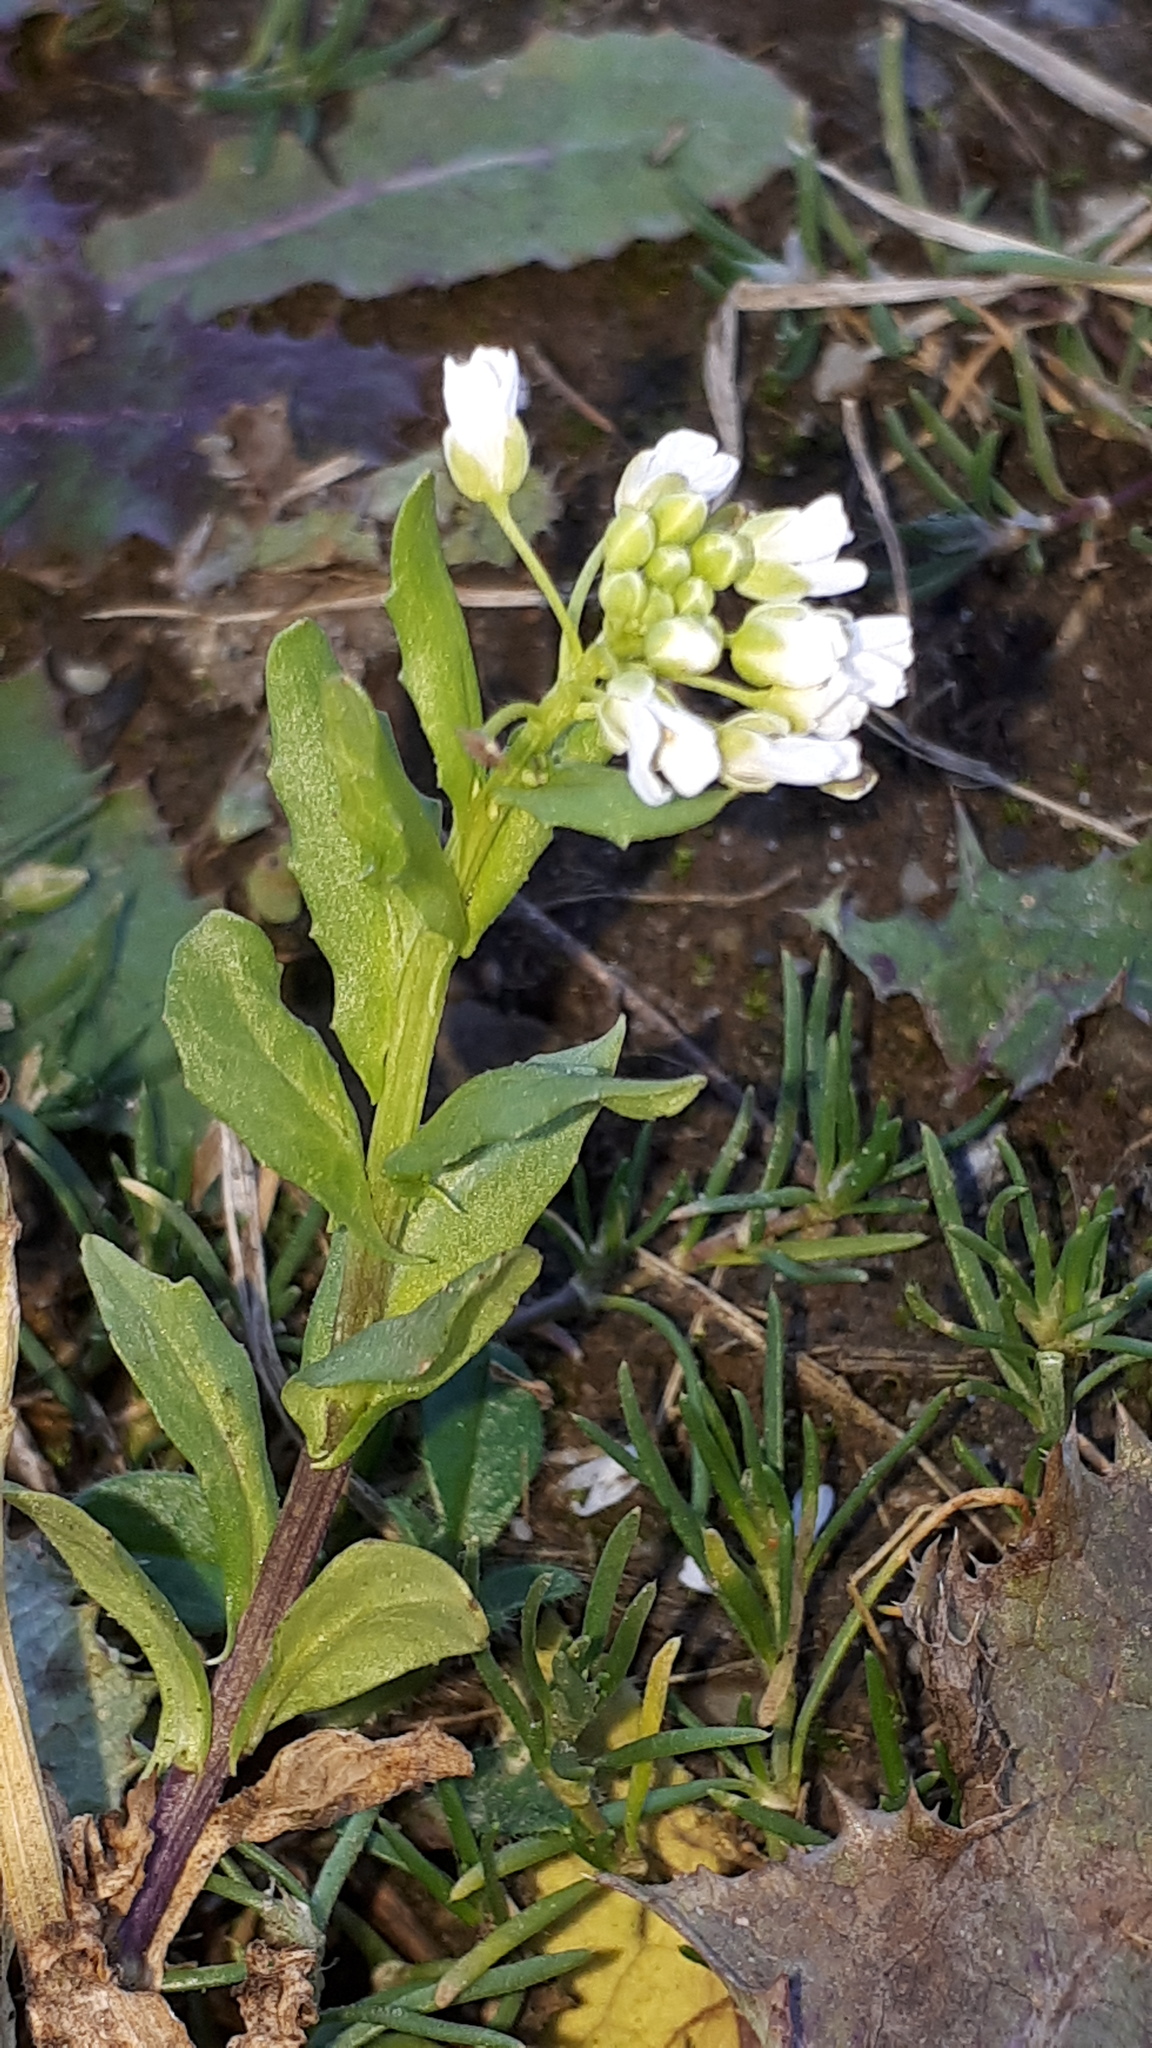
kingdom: Plantae
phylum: Tracheophyta
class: Magnoliopsida
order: Brassicales
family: Brassicaceae
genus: Thlaspi
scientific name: Thlaspi arvense
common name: Field pennycress
